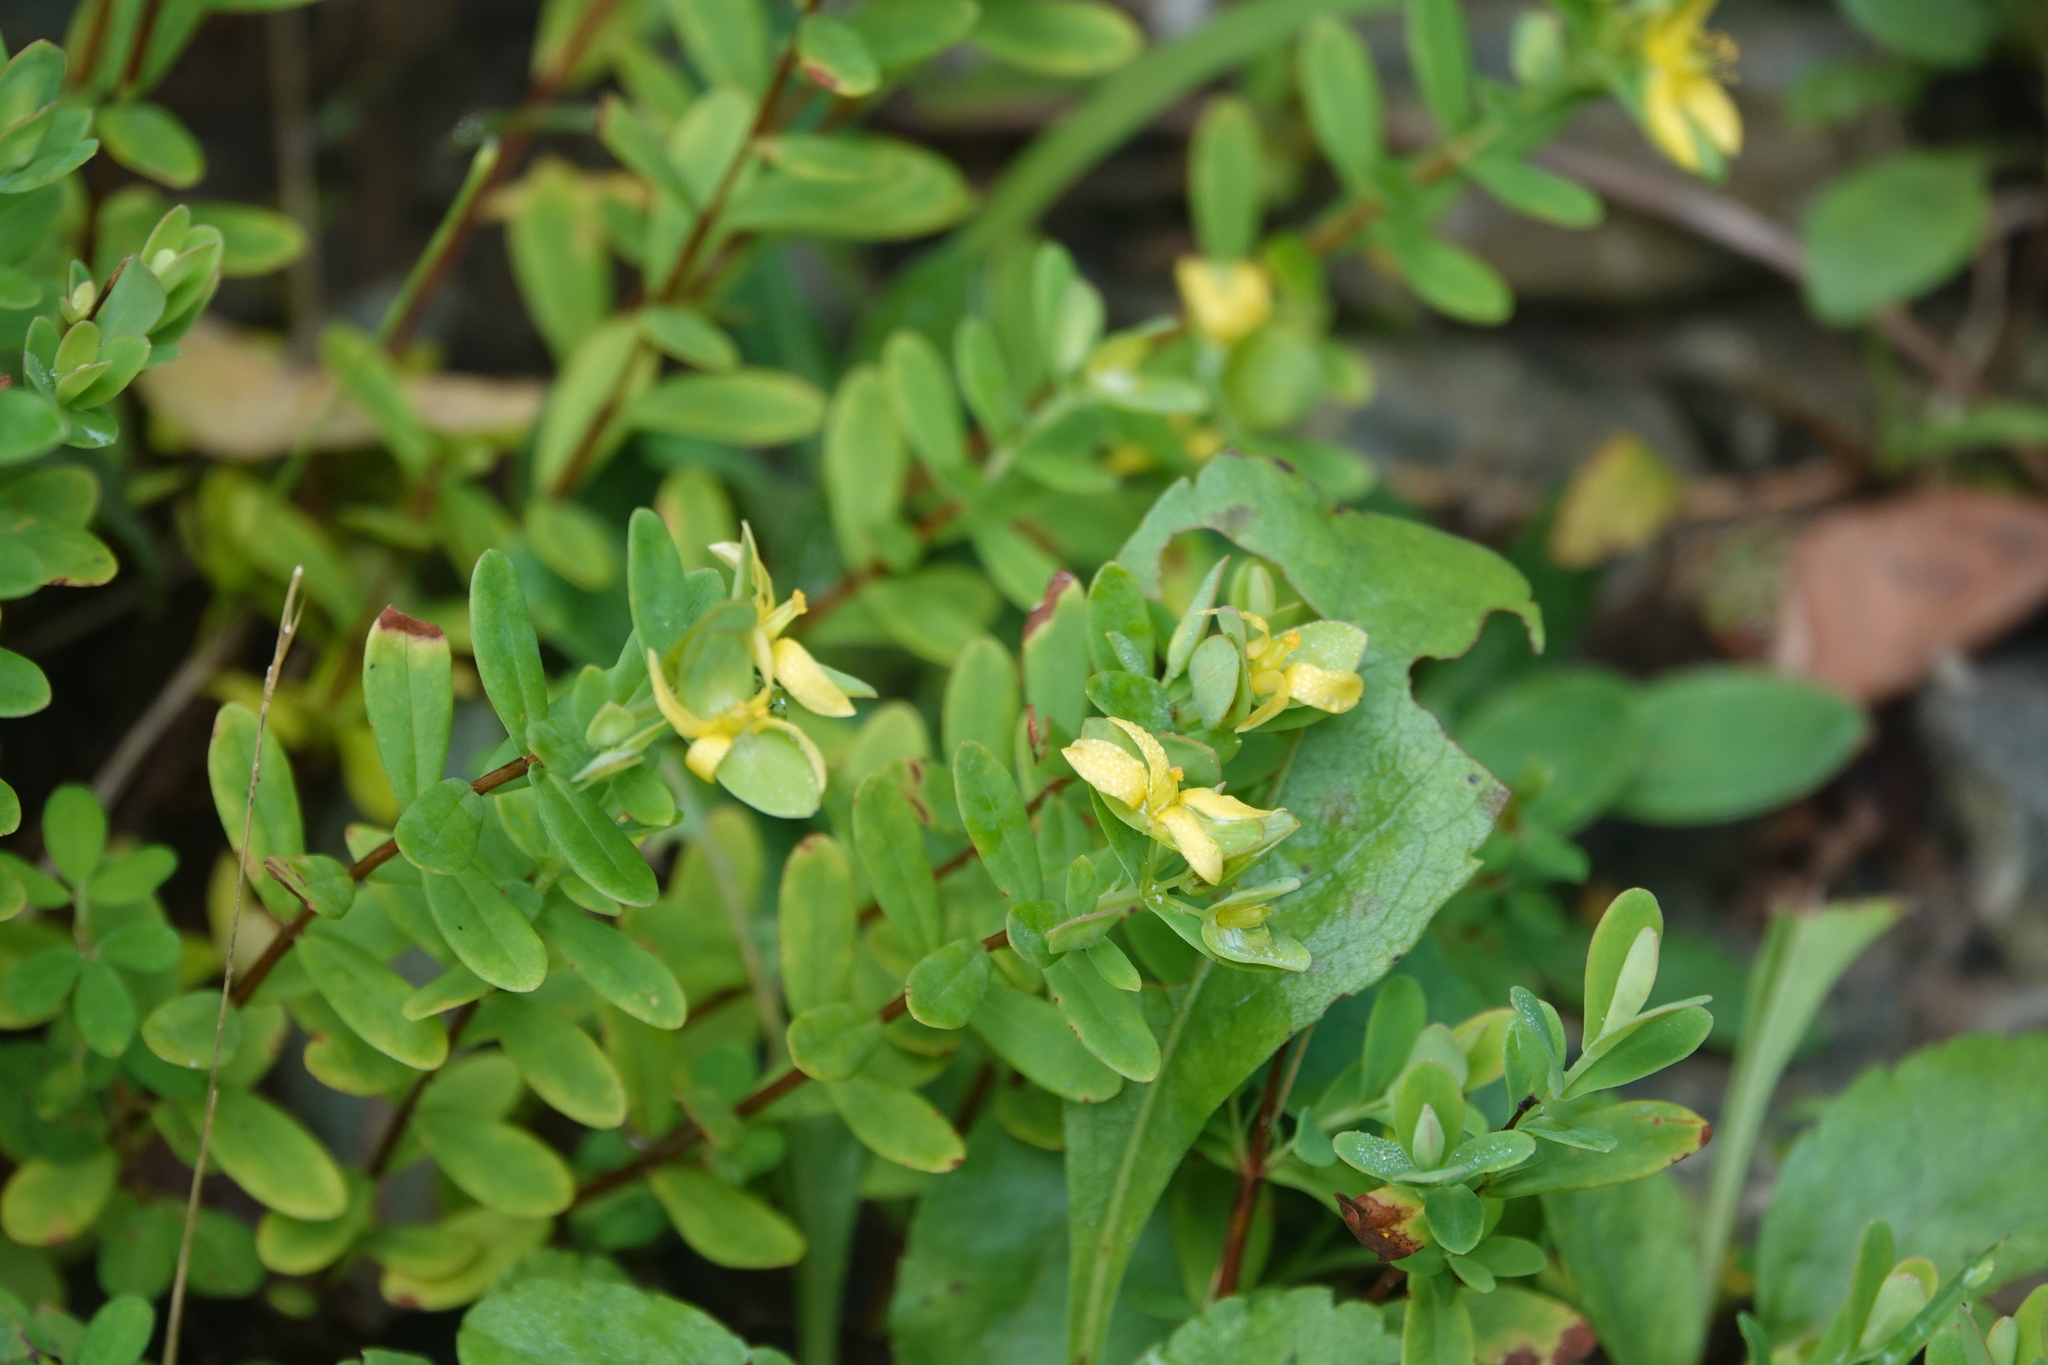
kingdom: Plantae
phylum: Tracheophyta
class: Magnoliopsida
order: Malpighiales
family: Hypericaceae
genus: Hypericum
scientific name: Hypericum hypericoides
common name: St. andrew's cross
